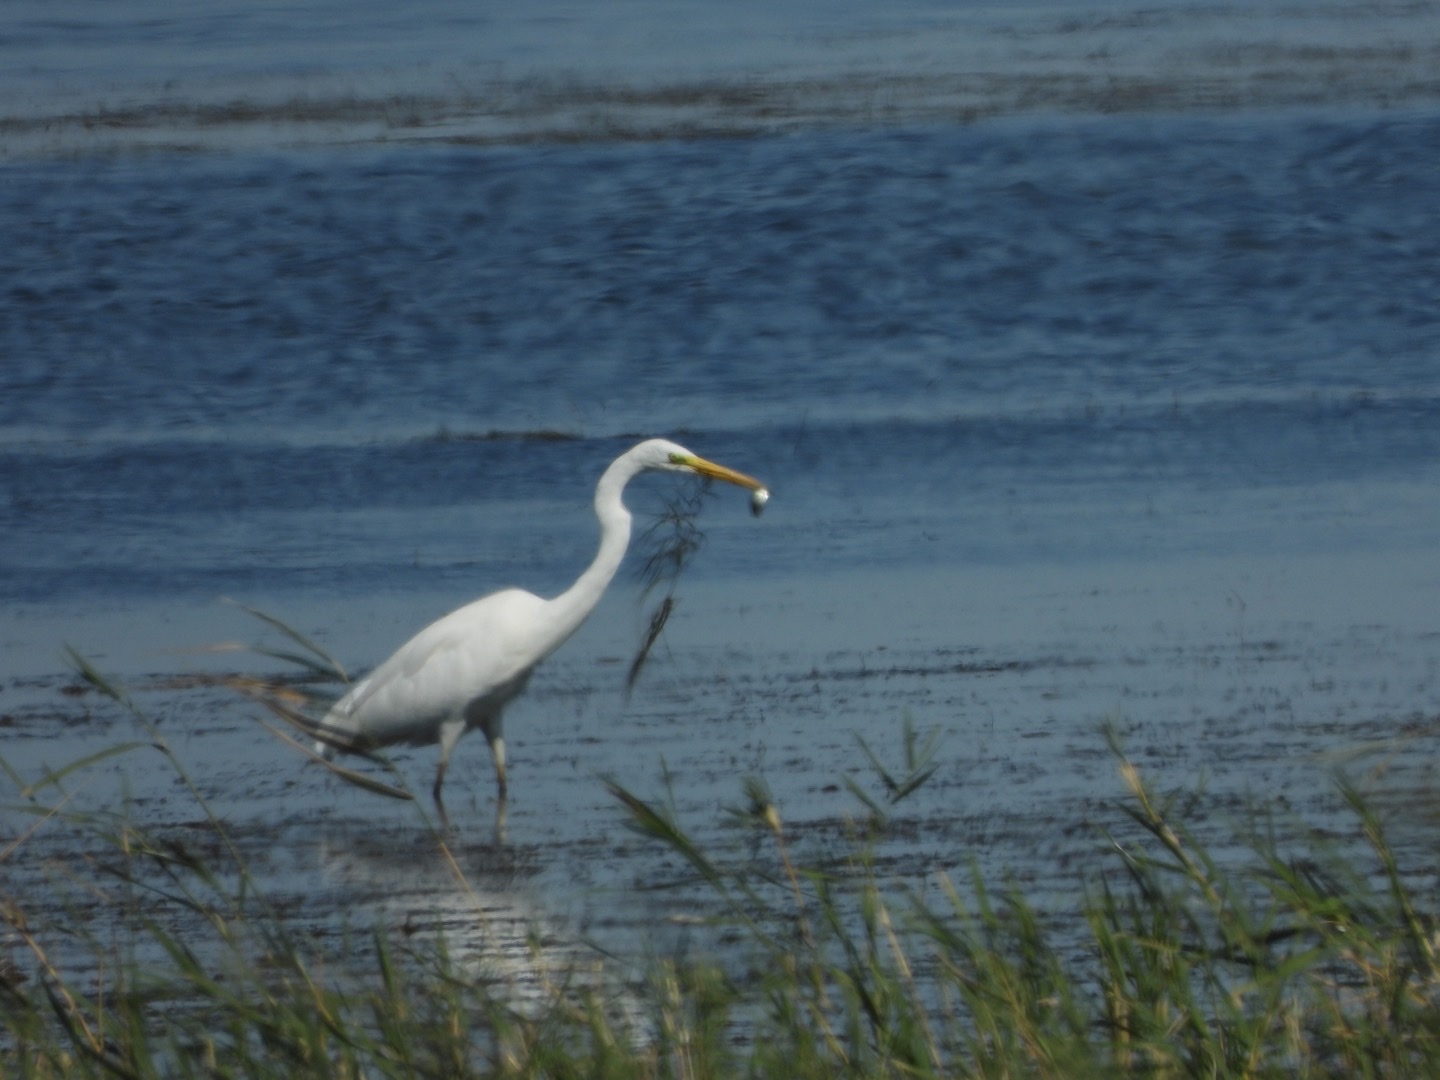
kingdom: Animalia
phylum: Chordata
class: Aves
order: Pelecaniformes
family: Ardeidae
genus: Ardea
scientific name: Ardea alba
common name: Great egret
